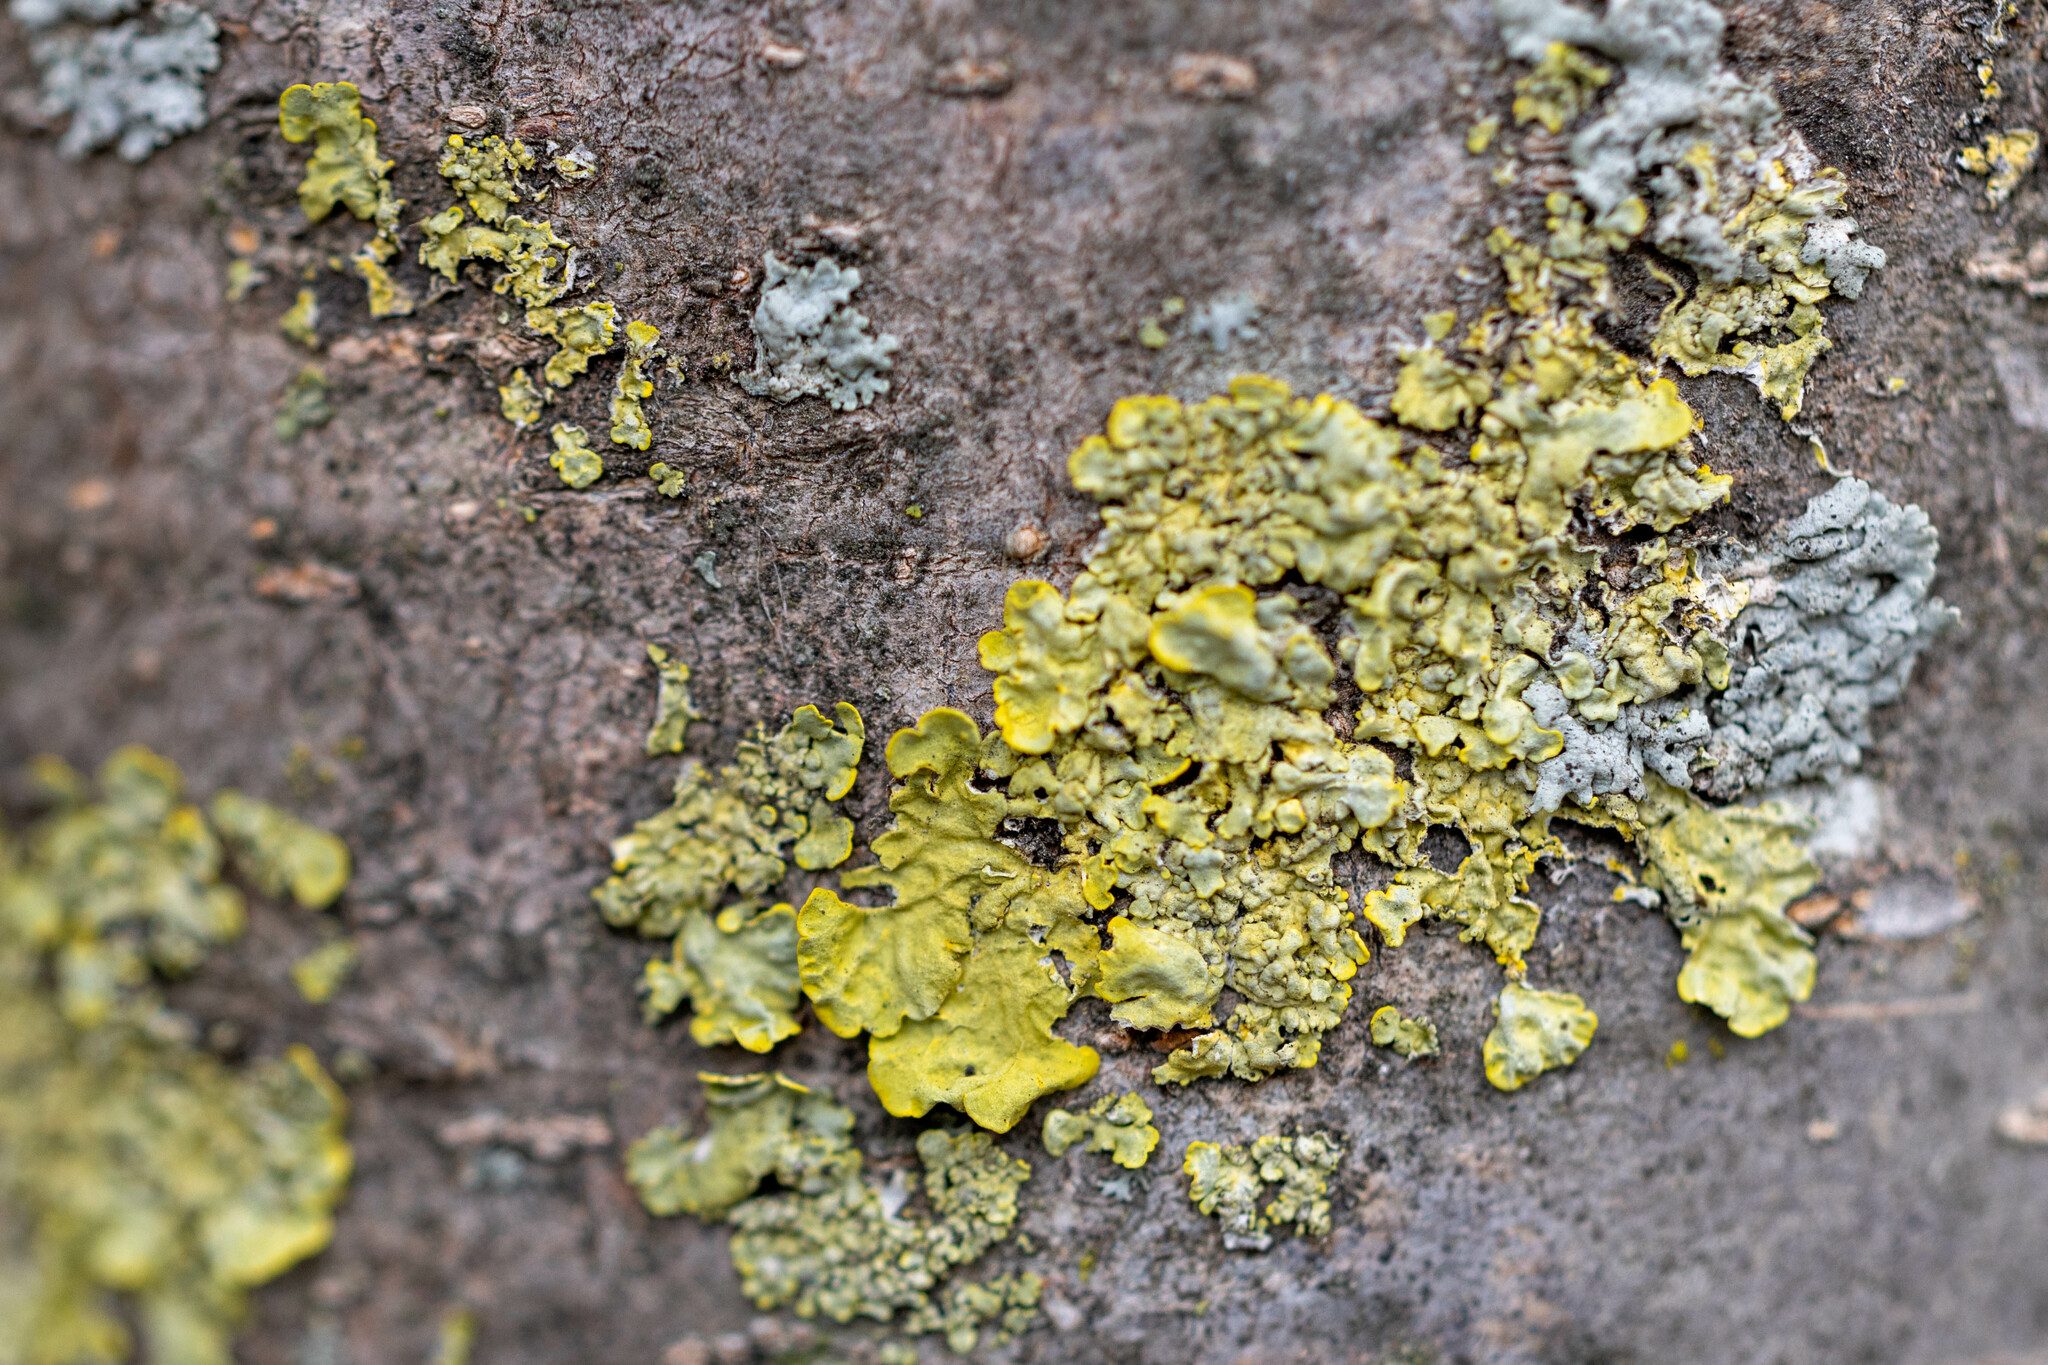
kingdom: Fungi
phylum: Ascomycota
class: Lecanoromycetes
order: Teloschistales
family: Teloschistaceae
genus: Xanthoria
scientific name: Xanthoria parietina
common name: Common orange lichen
